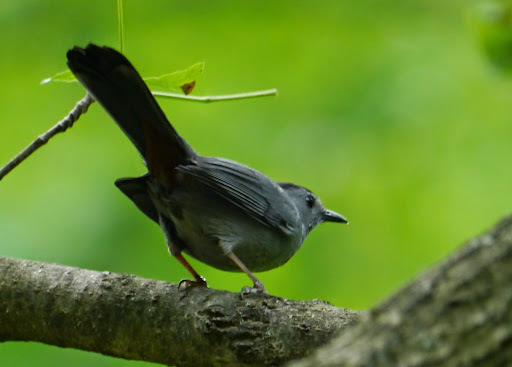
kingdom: Animalia
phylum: Chordata
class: Aves
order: Passeriformes
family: Mimidae
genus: Dumetella
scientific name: Dumetella carolinensis
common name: Gray catbird
